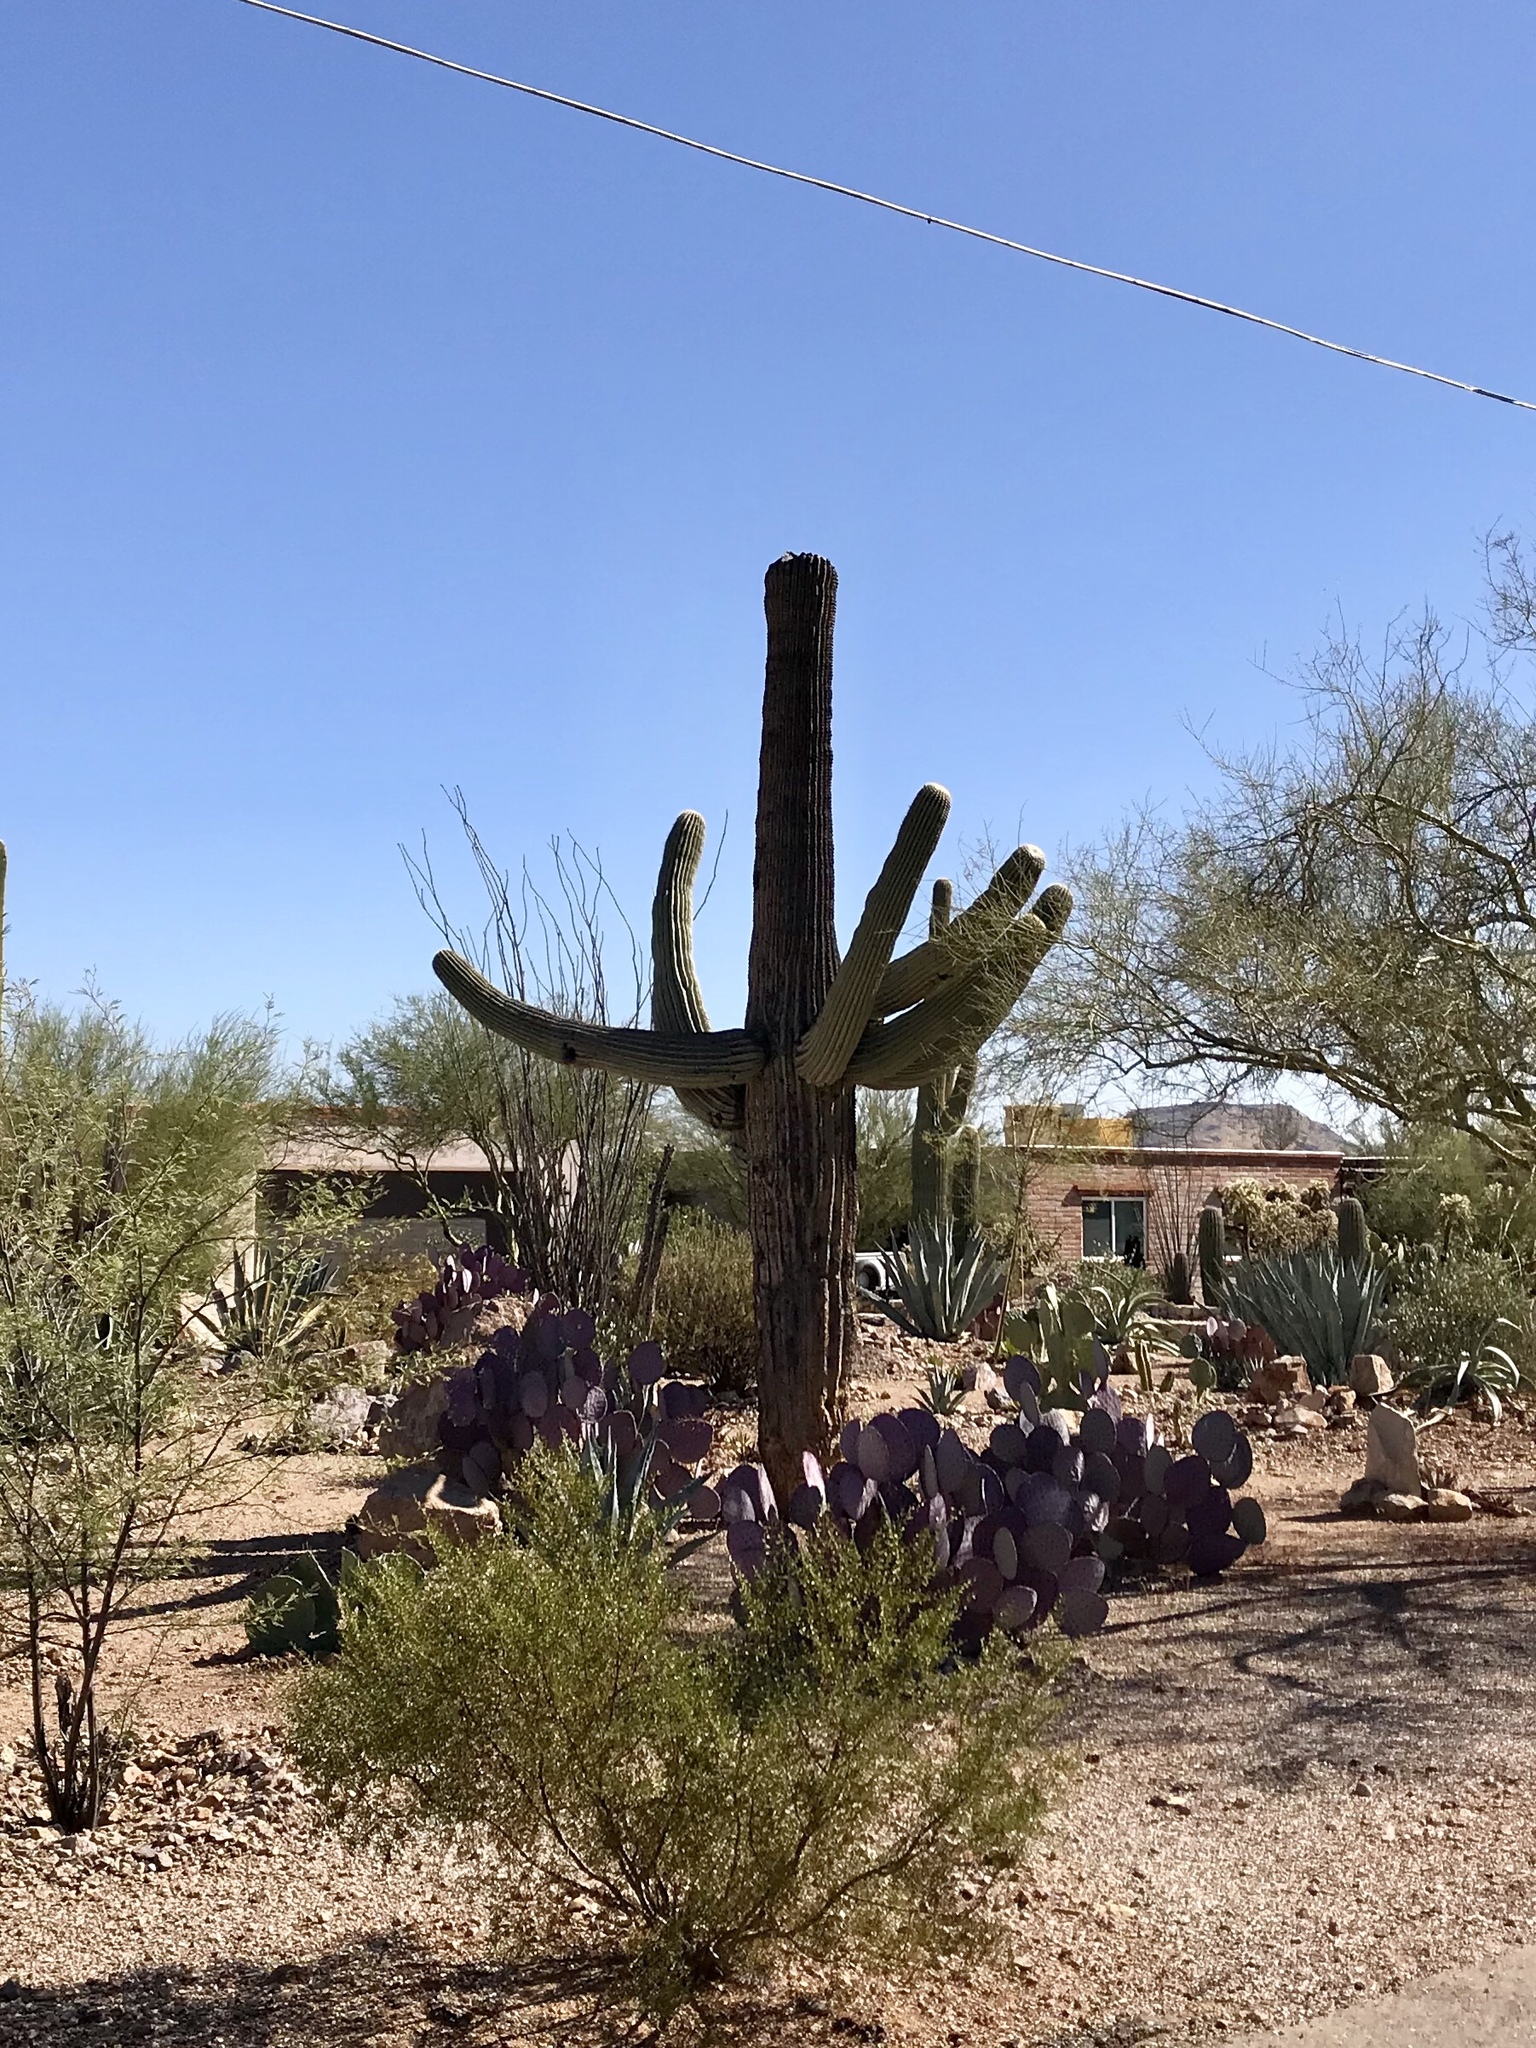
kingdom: Plantae
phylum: Tracheophyta
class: Magnoliopsida
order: Caryophyllales
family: Cactaceae
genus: Carnegiea
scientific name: Carnegiea gigantea
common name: Saguaro
